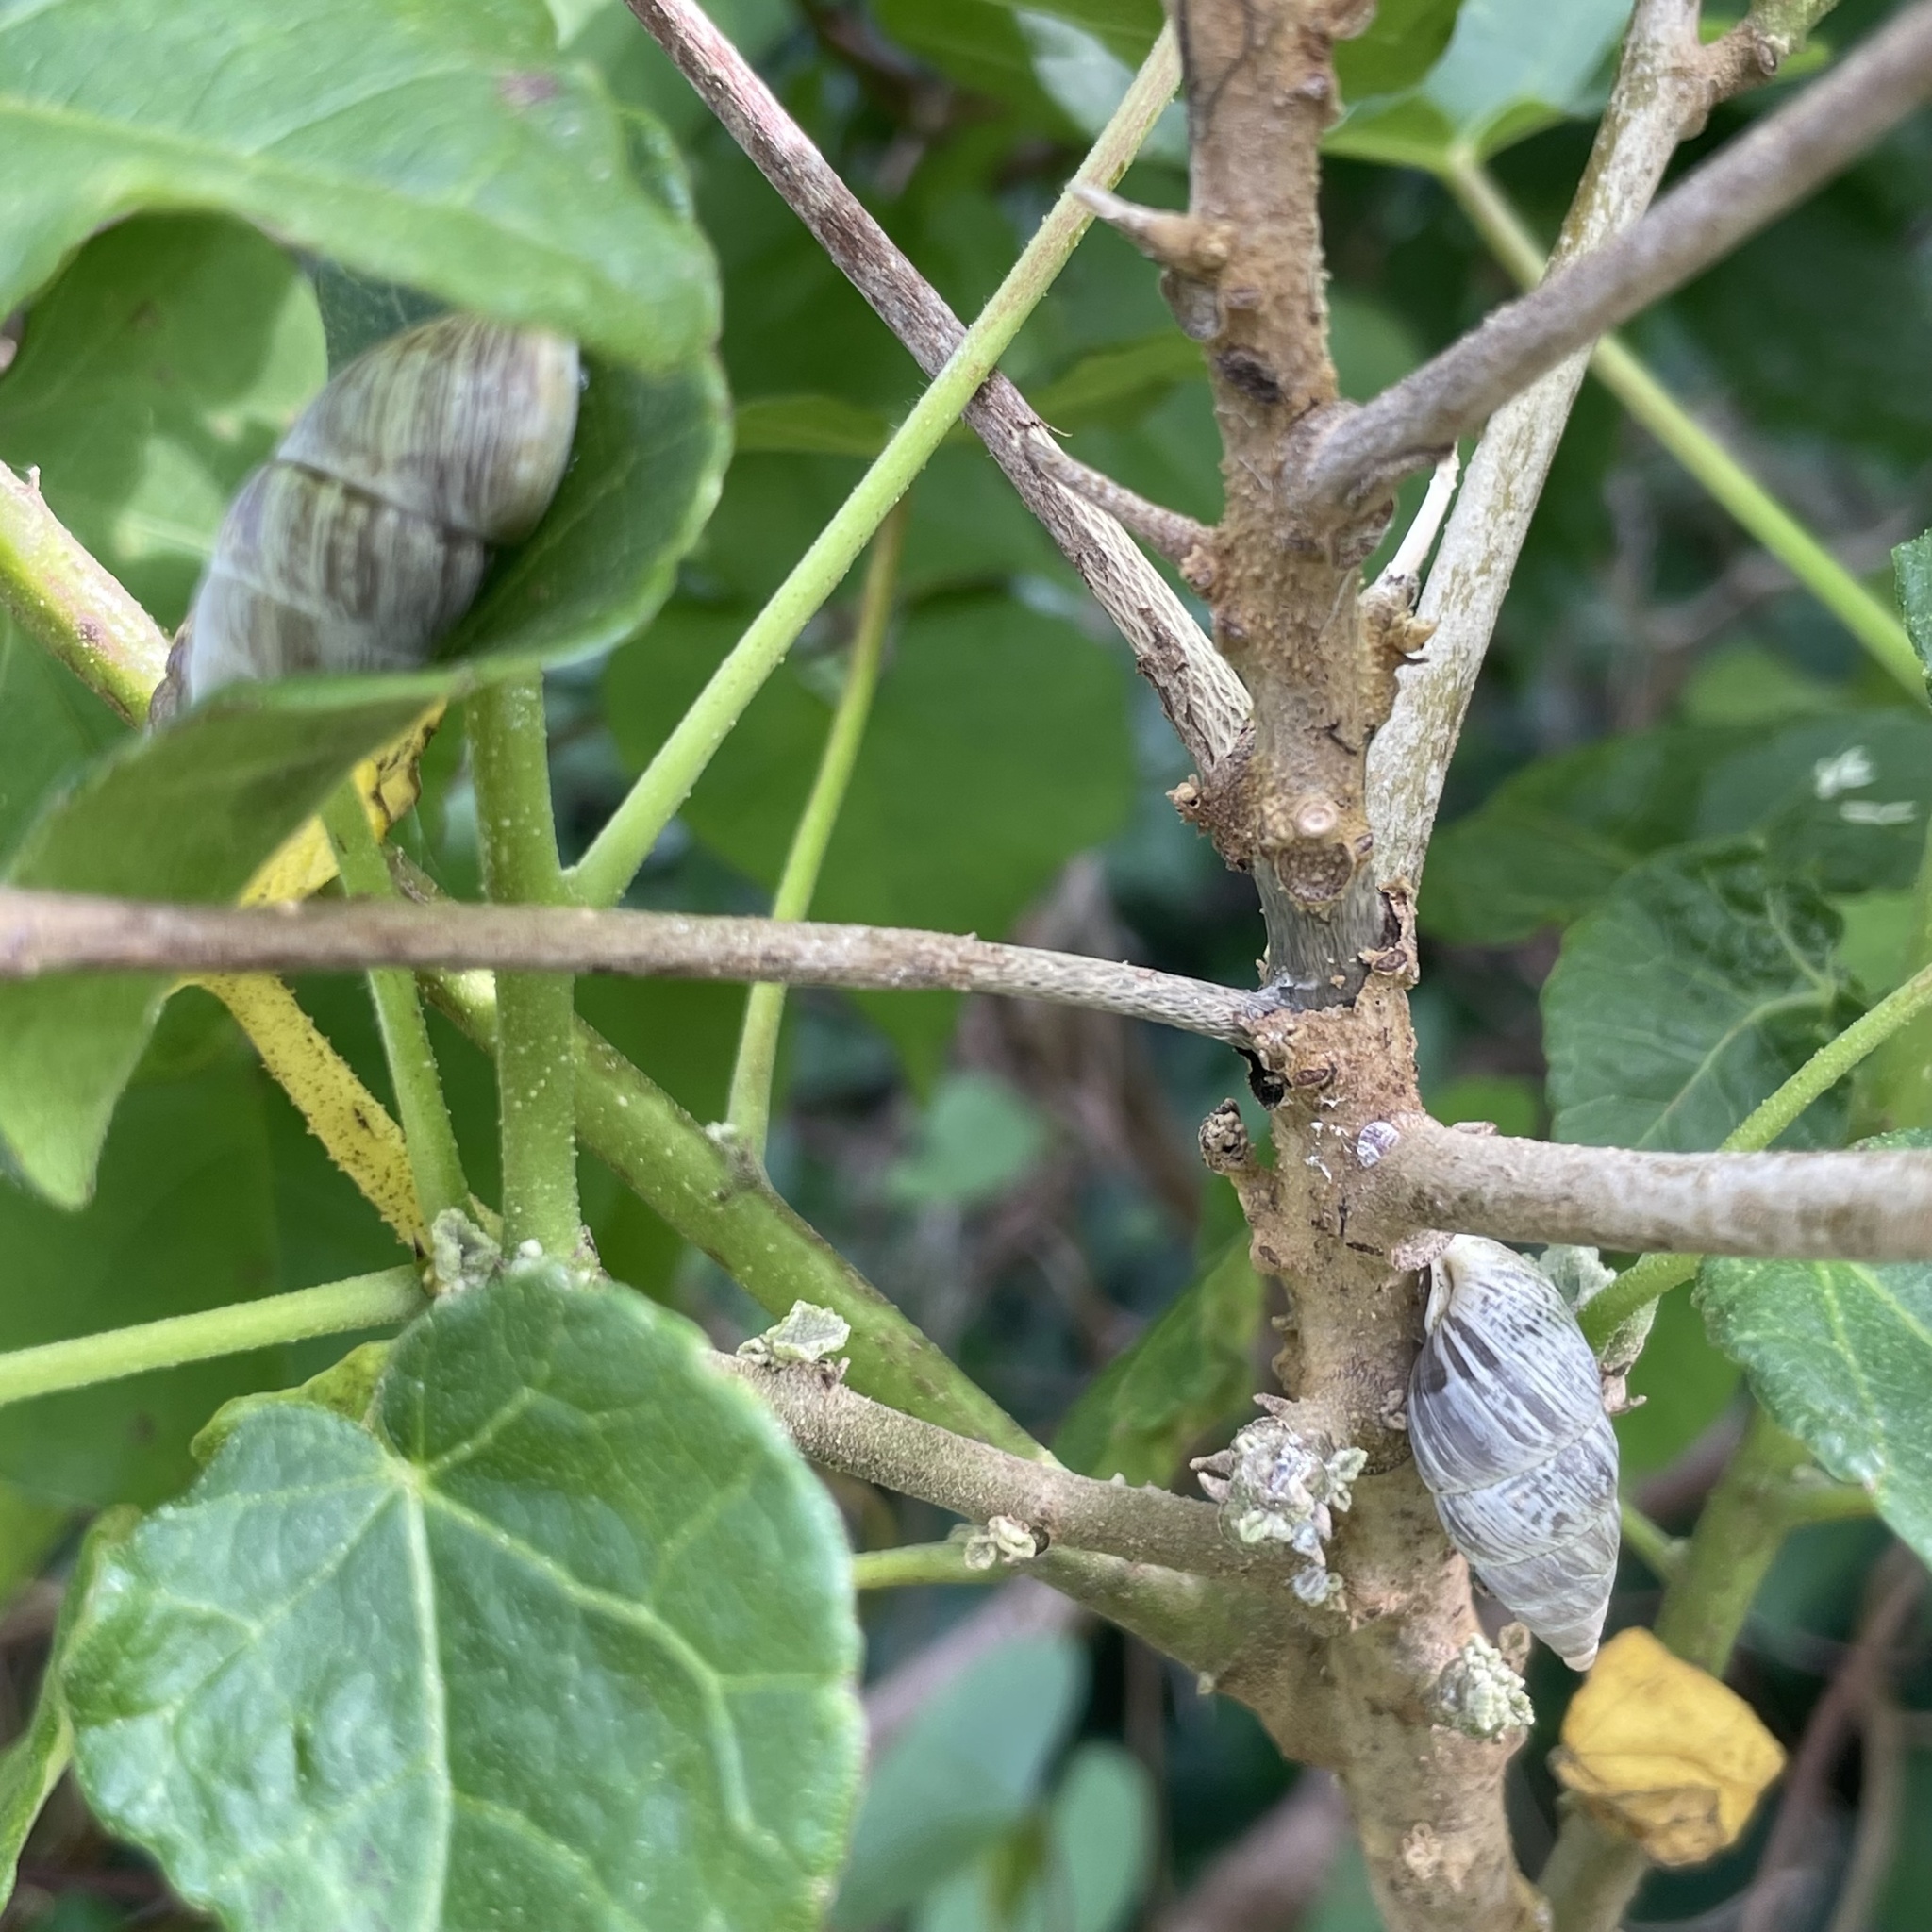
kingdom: Animalia
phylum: Mollusca
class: Gastropoda
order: Stylommatophora
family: Enidae
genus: Luchuena
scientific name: Luchuena reticulata
